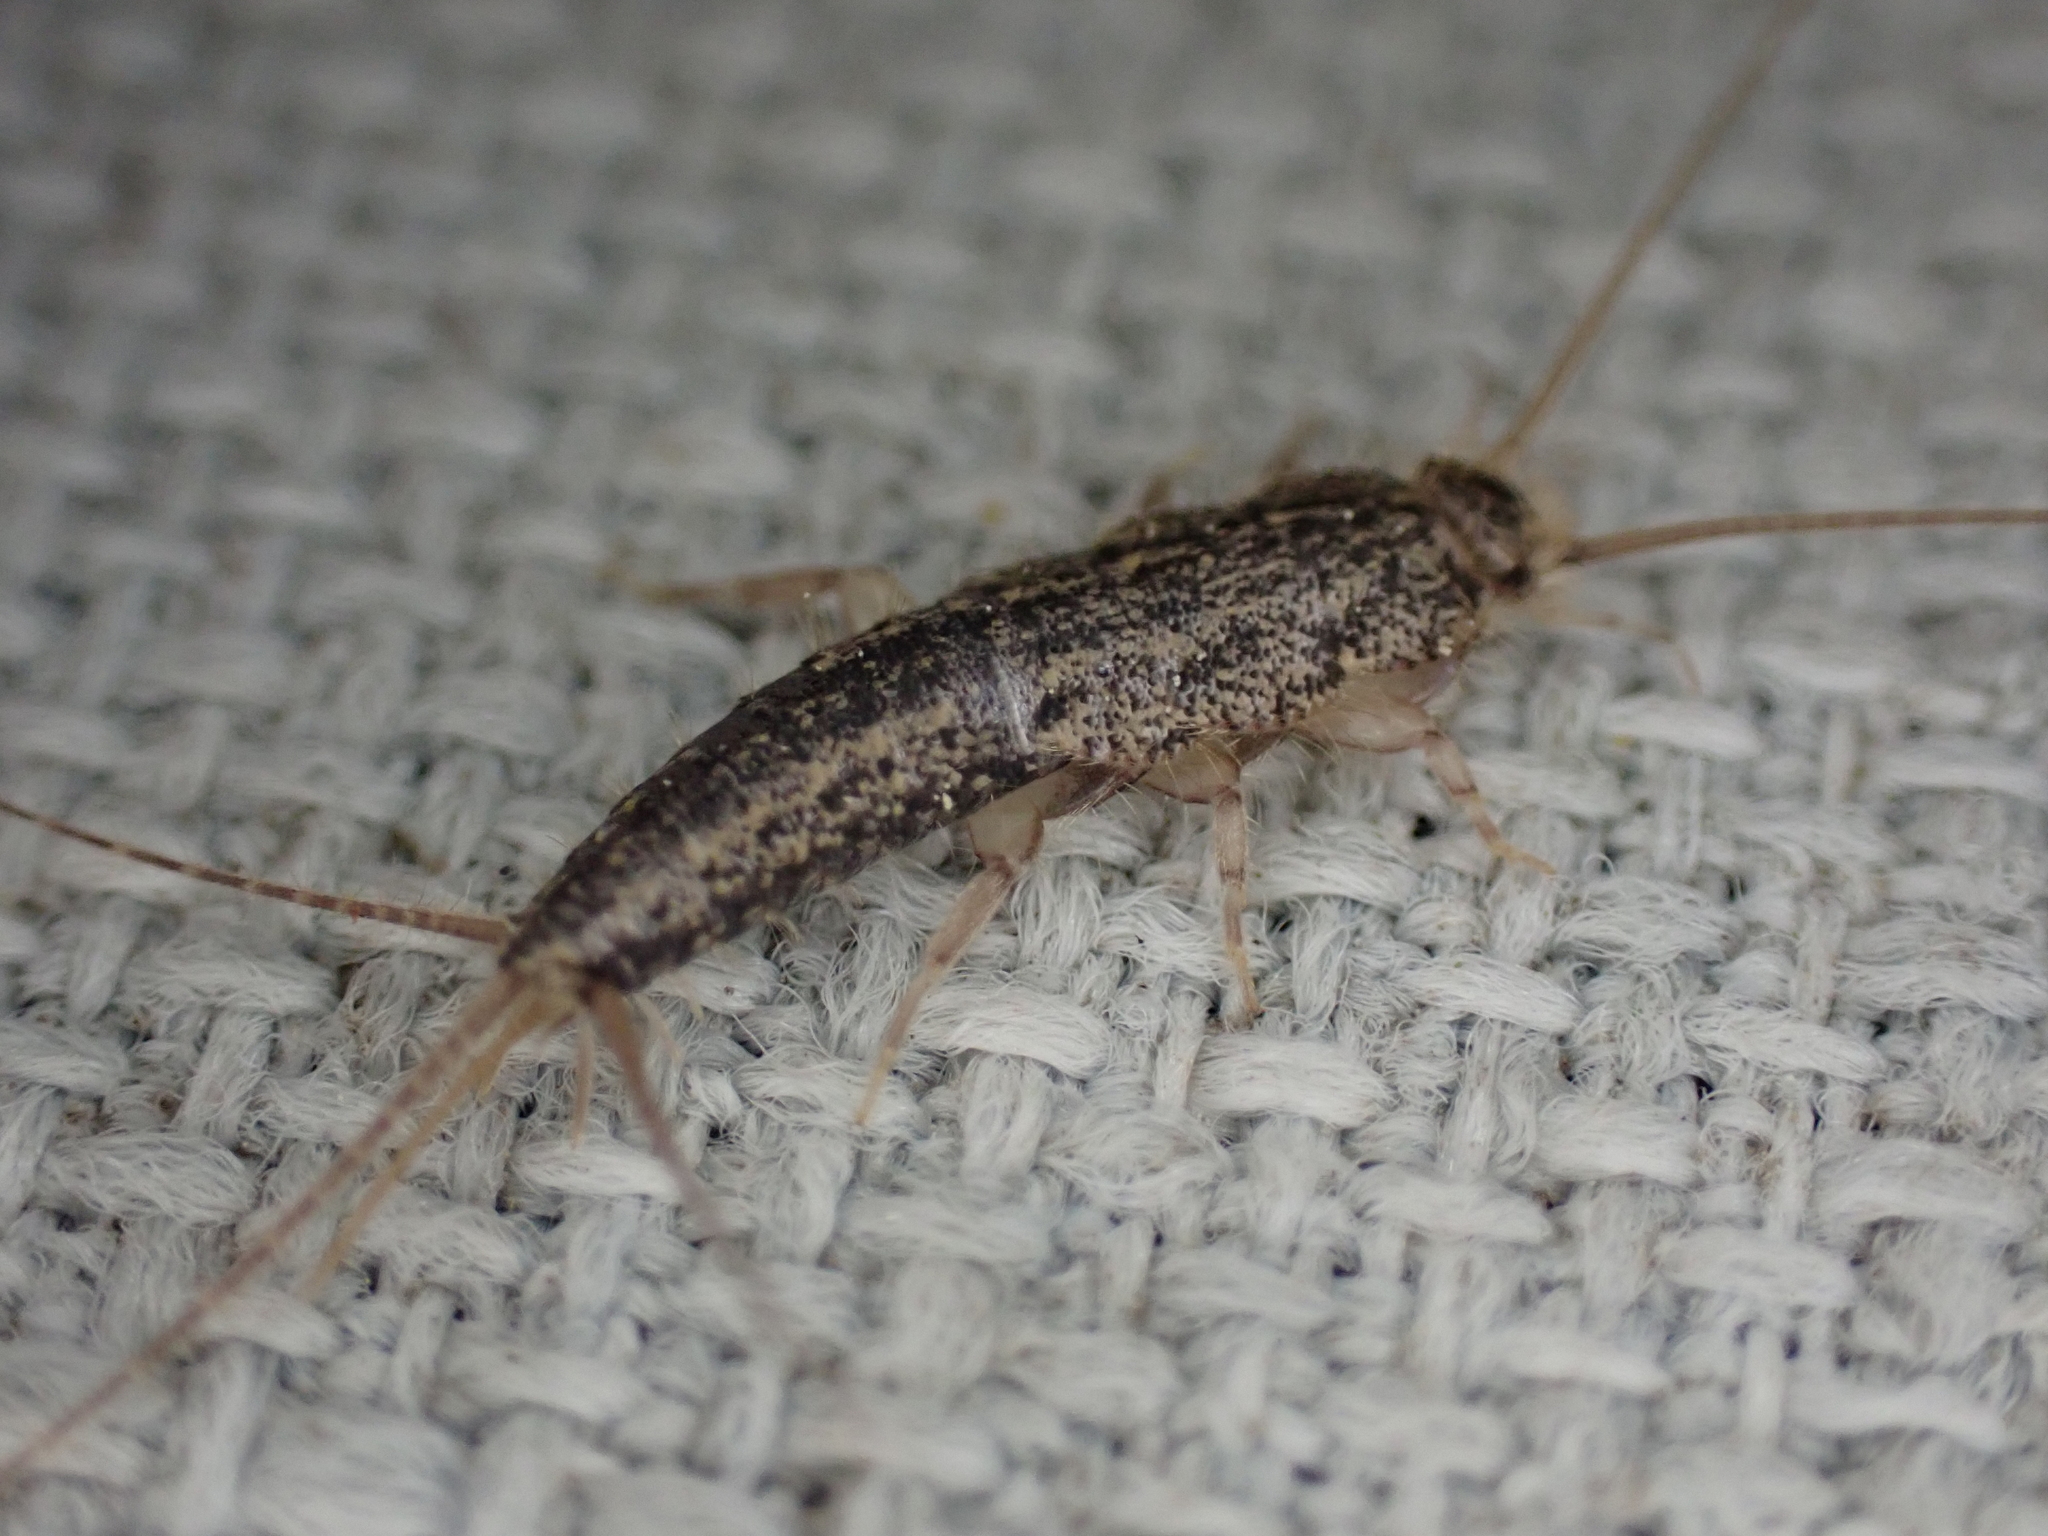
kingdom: Animalia
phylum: Arthropoda
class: Insecta
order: Zygentoma
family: Lepismatidae
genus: Ctenolepisma
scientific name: Ctenolepisma lineata
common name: Four-lined silverfish
